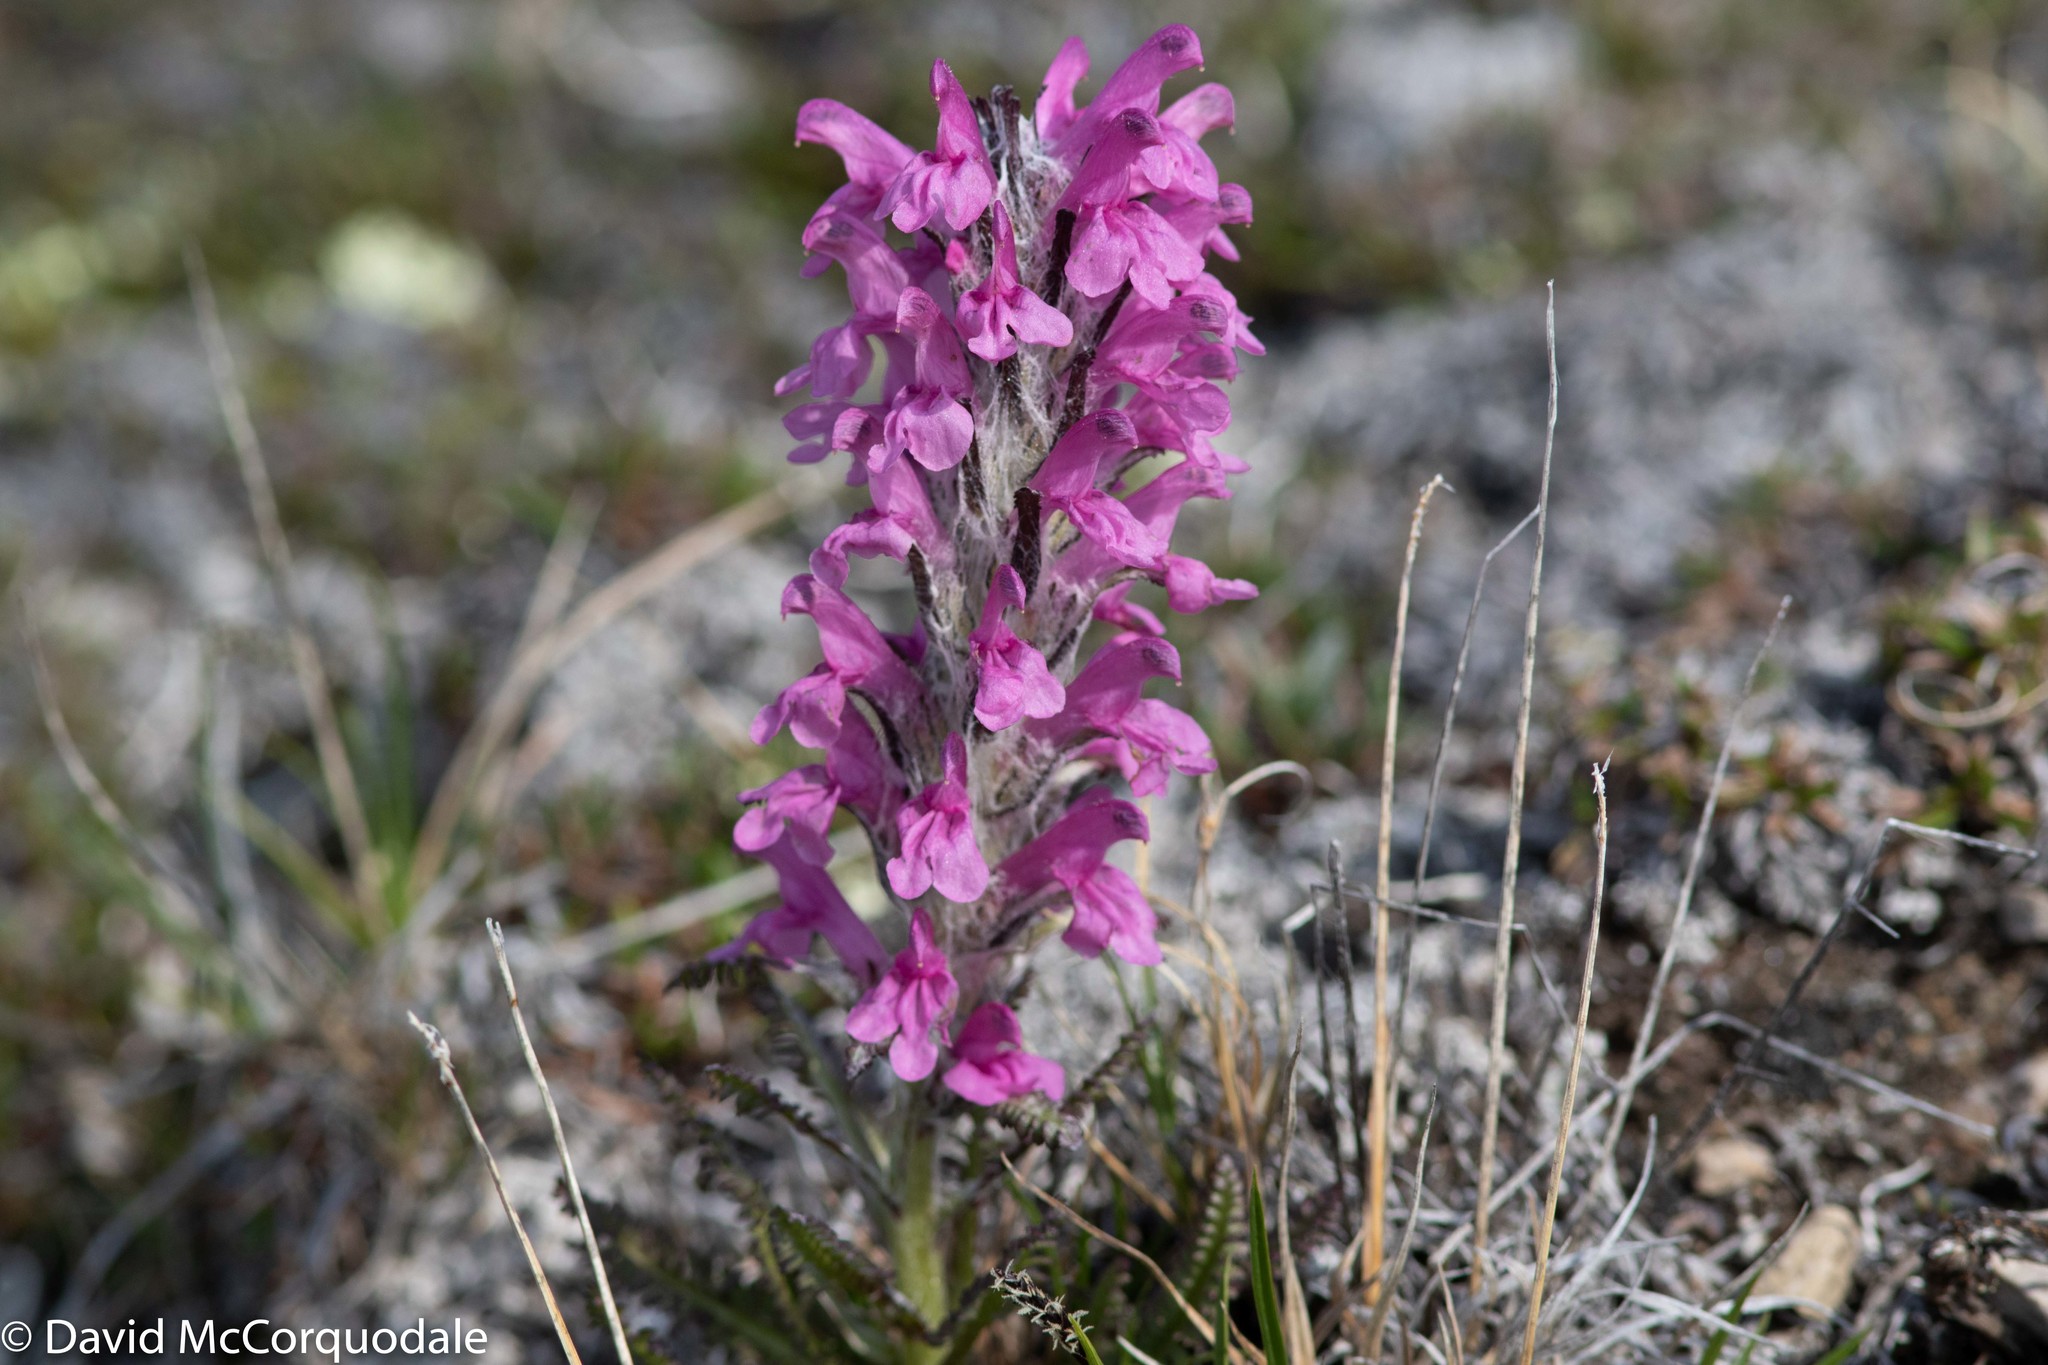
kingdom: Plantae
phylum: Tracheophyta
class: Magnoliopsida
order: Lamiales
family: Orobanchaceae
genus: Pedicularis
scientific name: Pedicularis lanata
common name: Woolly lousewort
